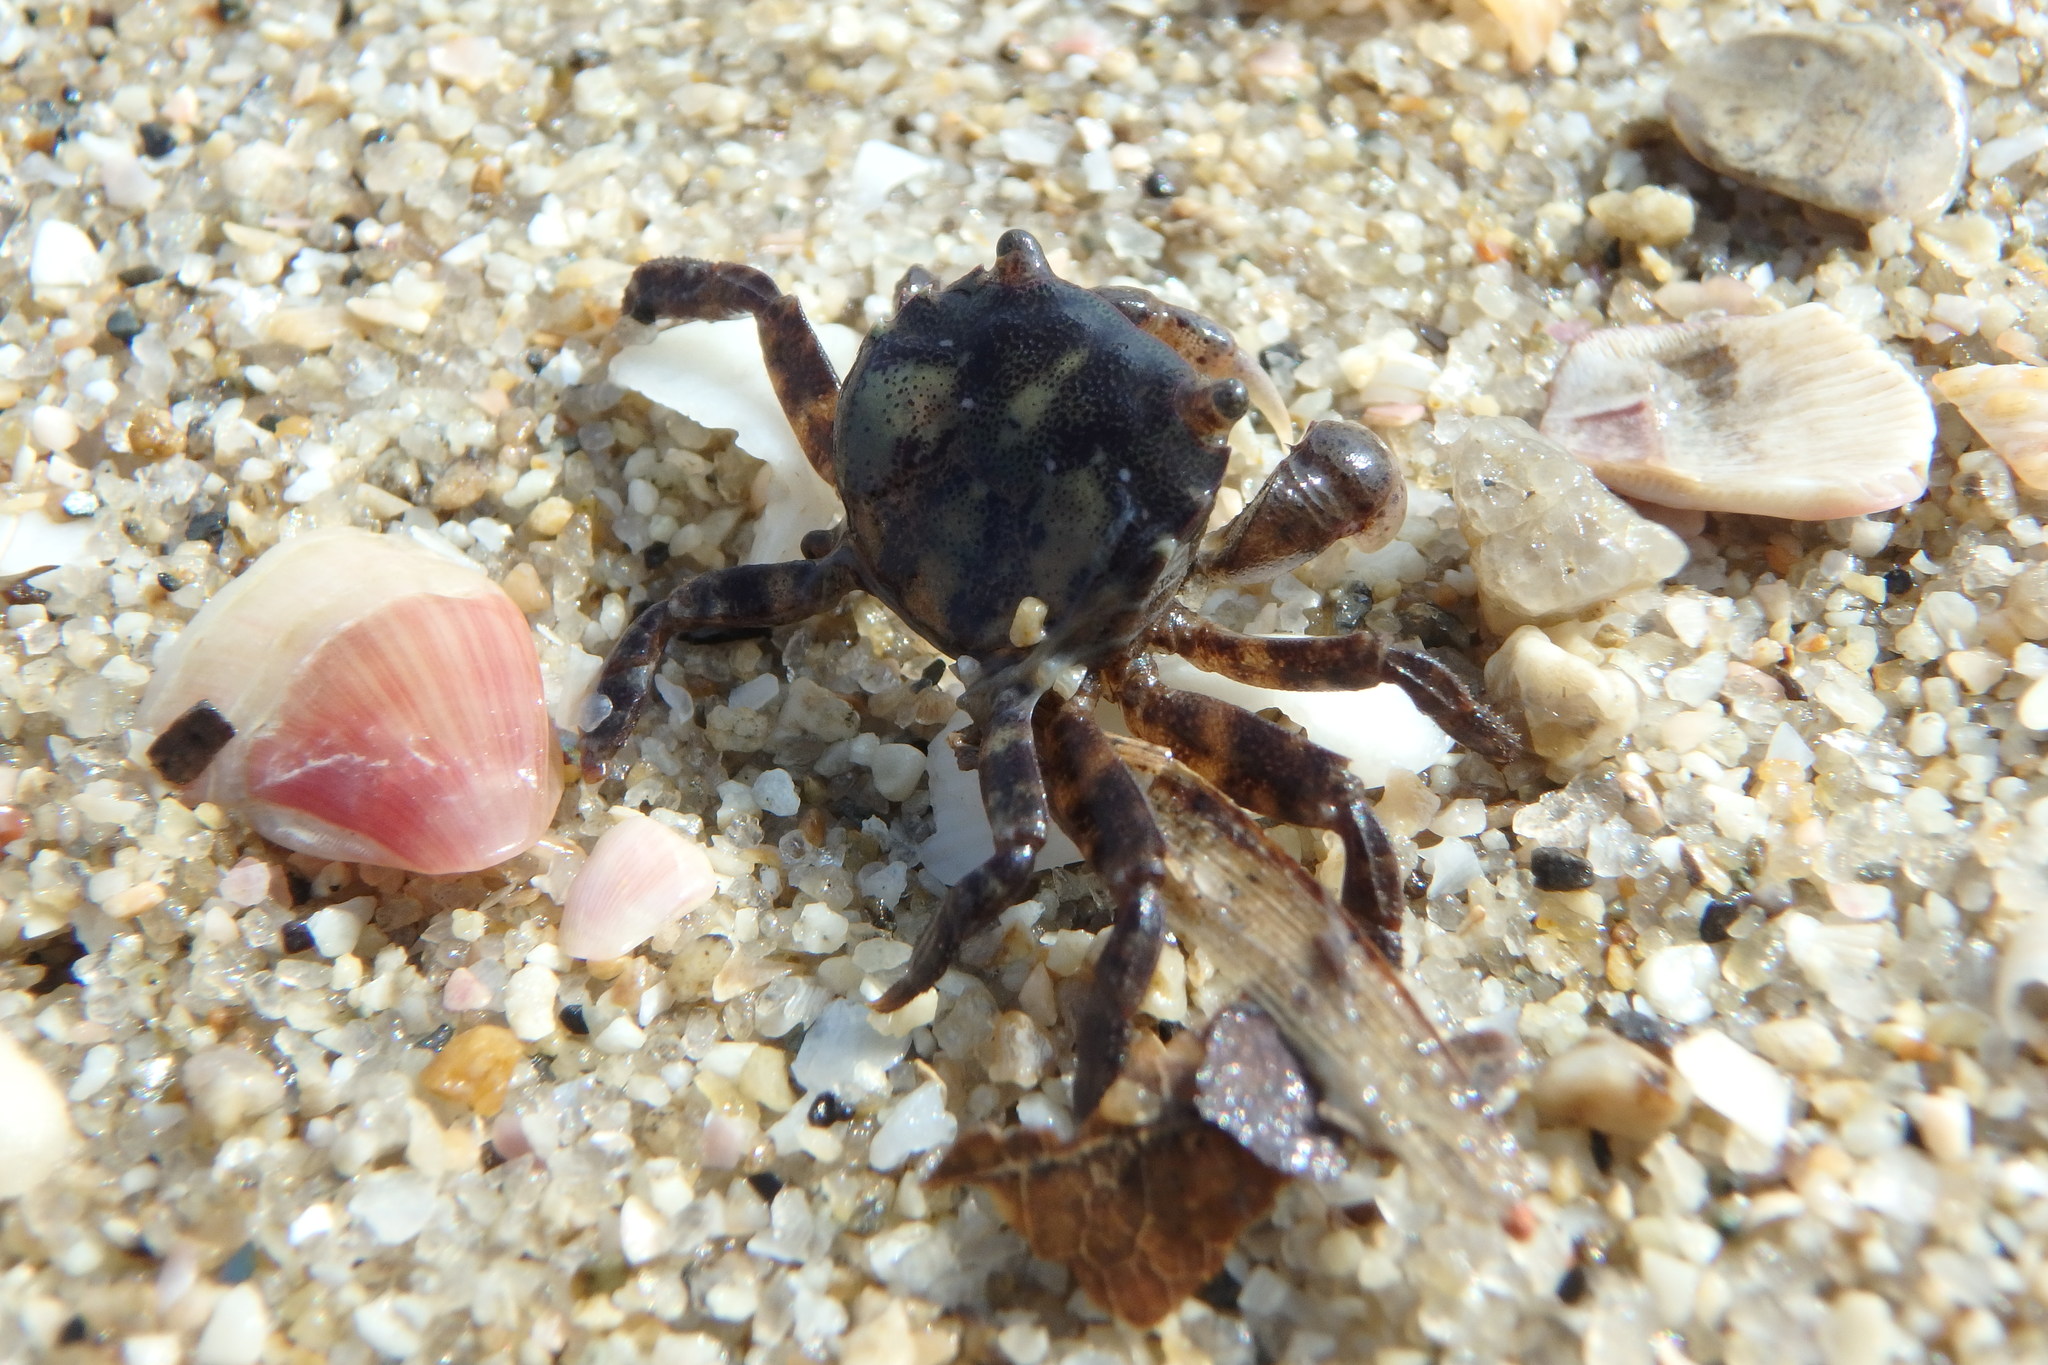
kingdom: Animalia
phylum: Arthropoda
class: Malacostraca
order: Decapoda
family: Varunidae
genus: Hemigrapsus
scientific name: Hemigrapsus sanguineus
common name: Asian shore crab
